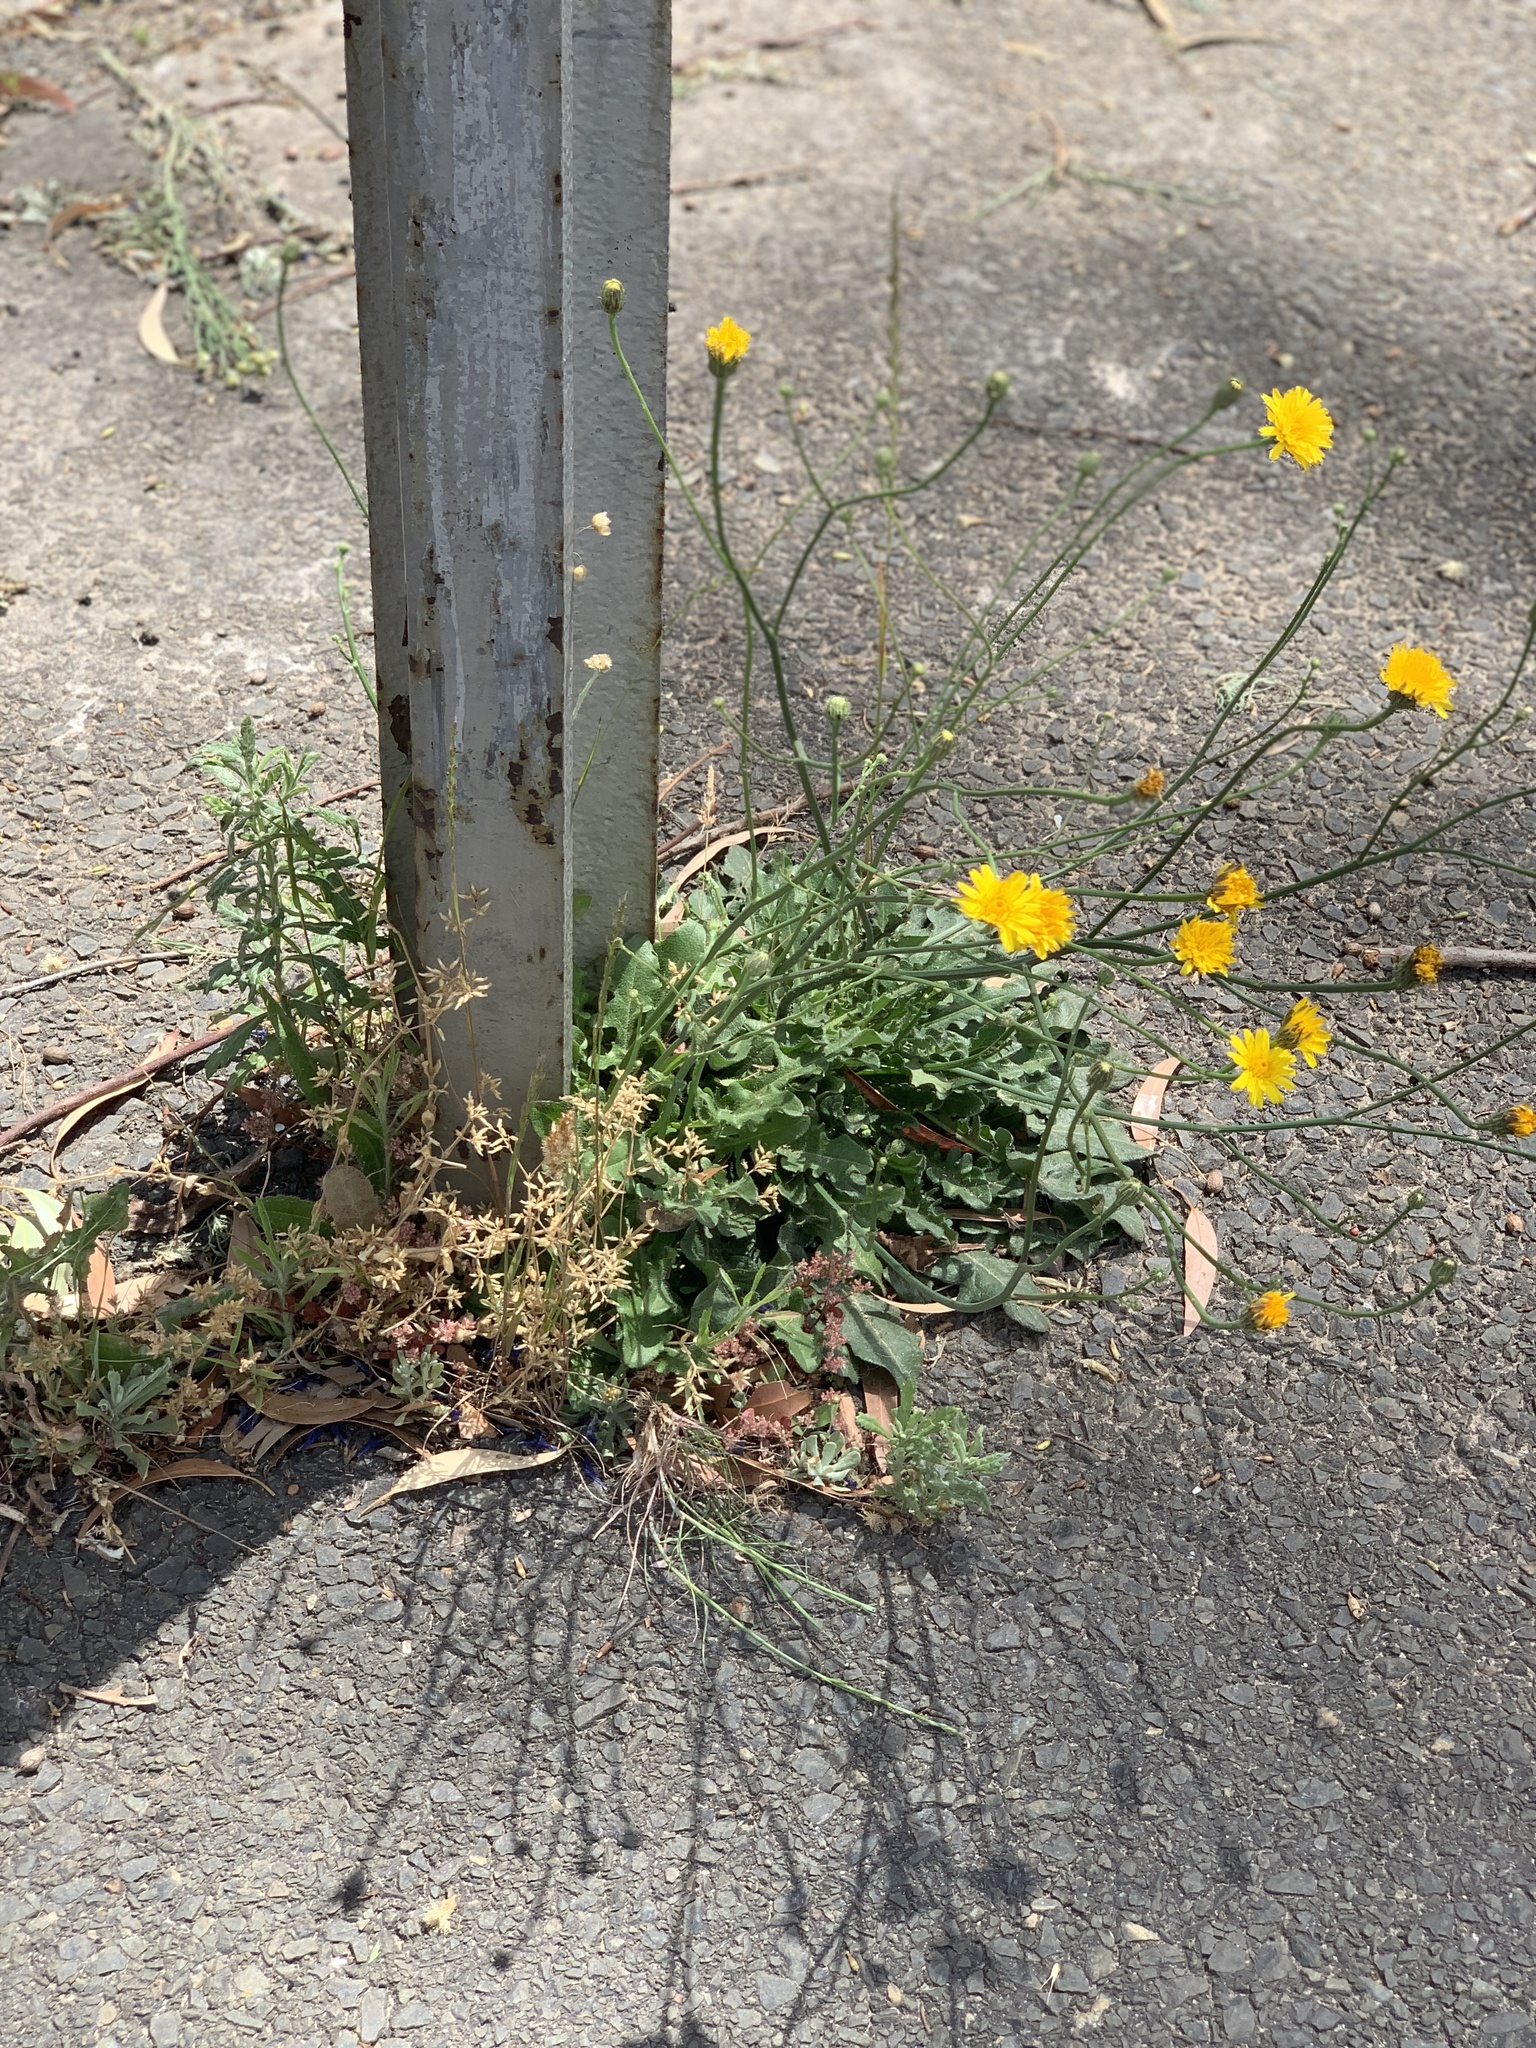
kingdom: Plantae
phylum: Tracheophyta
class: Magnoliopsida
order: Asterales
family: Asteraceae
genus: Hypochaeris
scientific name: Hypochaeris radicata
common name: Flatweed
